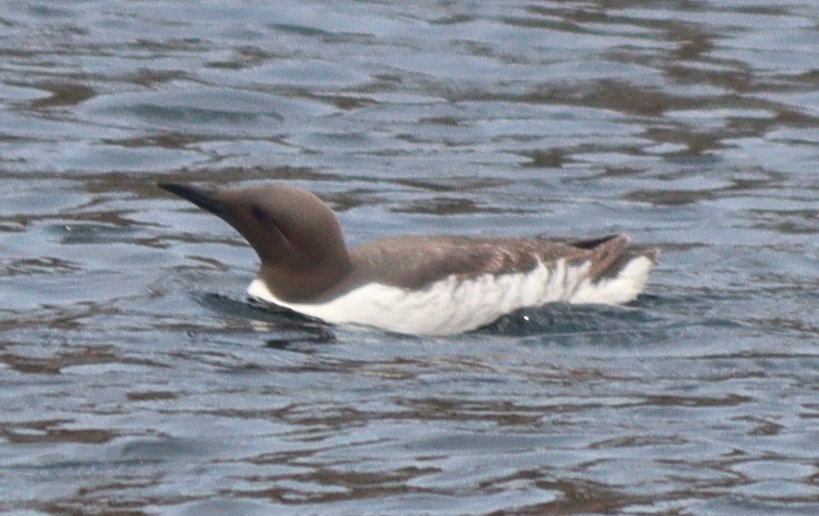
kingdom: Animalia
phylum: Chordata
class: Aves
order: Charadriiformes
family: Alcidae
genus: Uria
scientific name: Uria aalge
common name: Common murre
